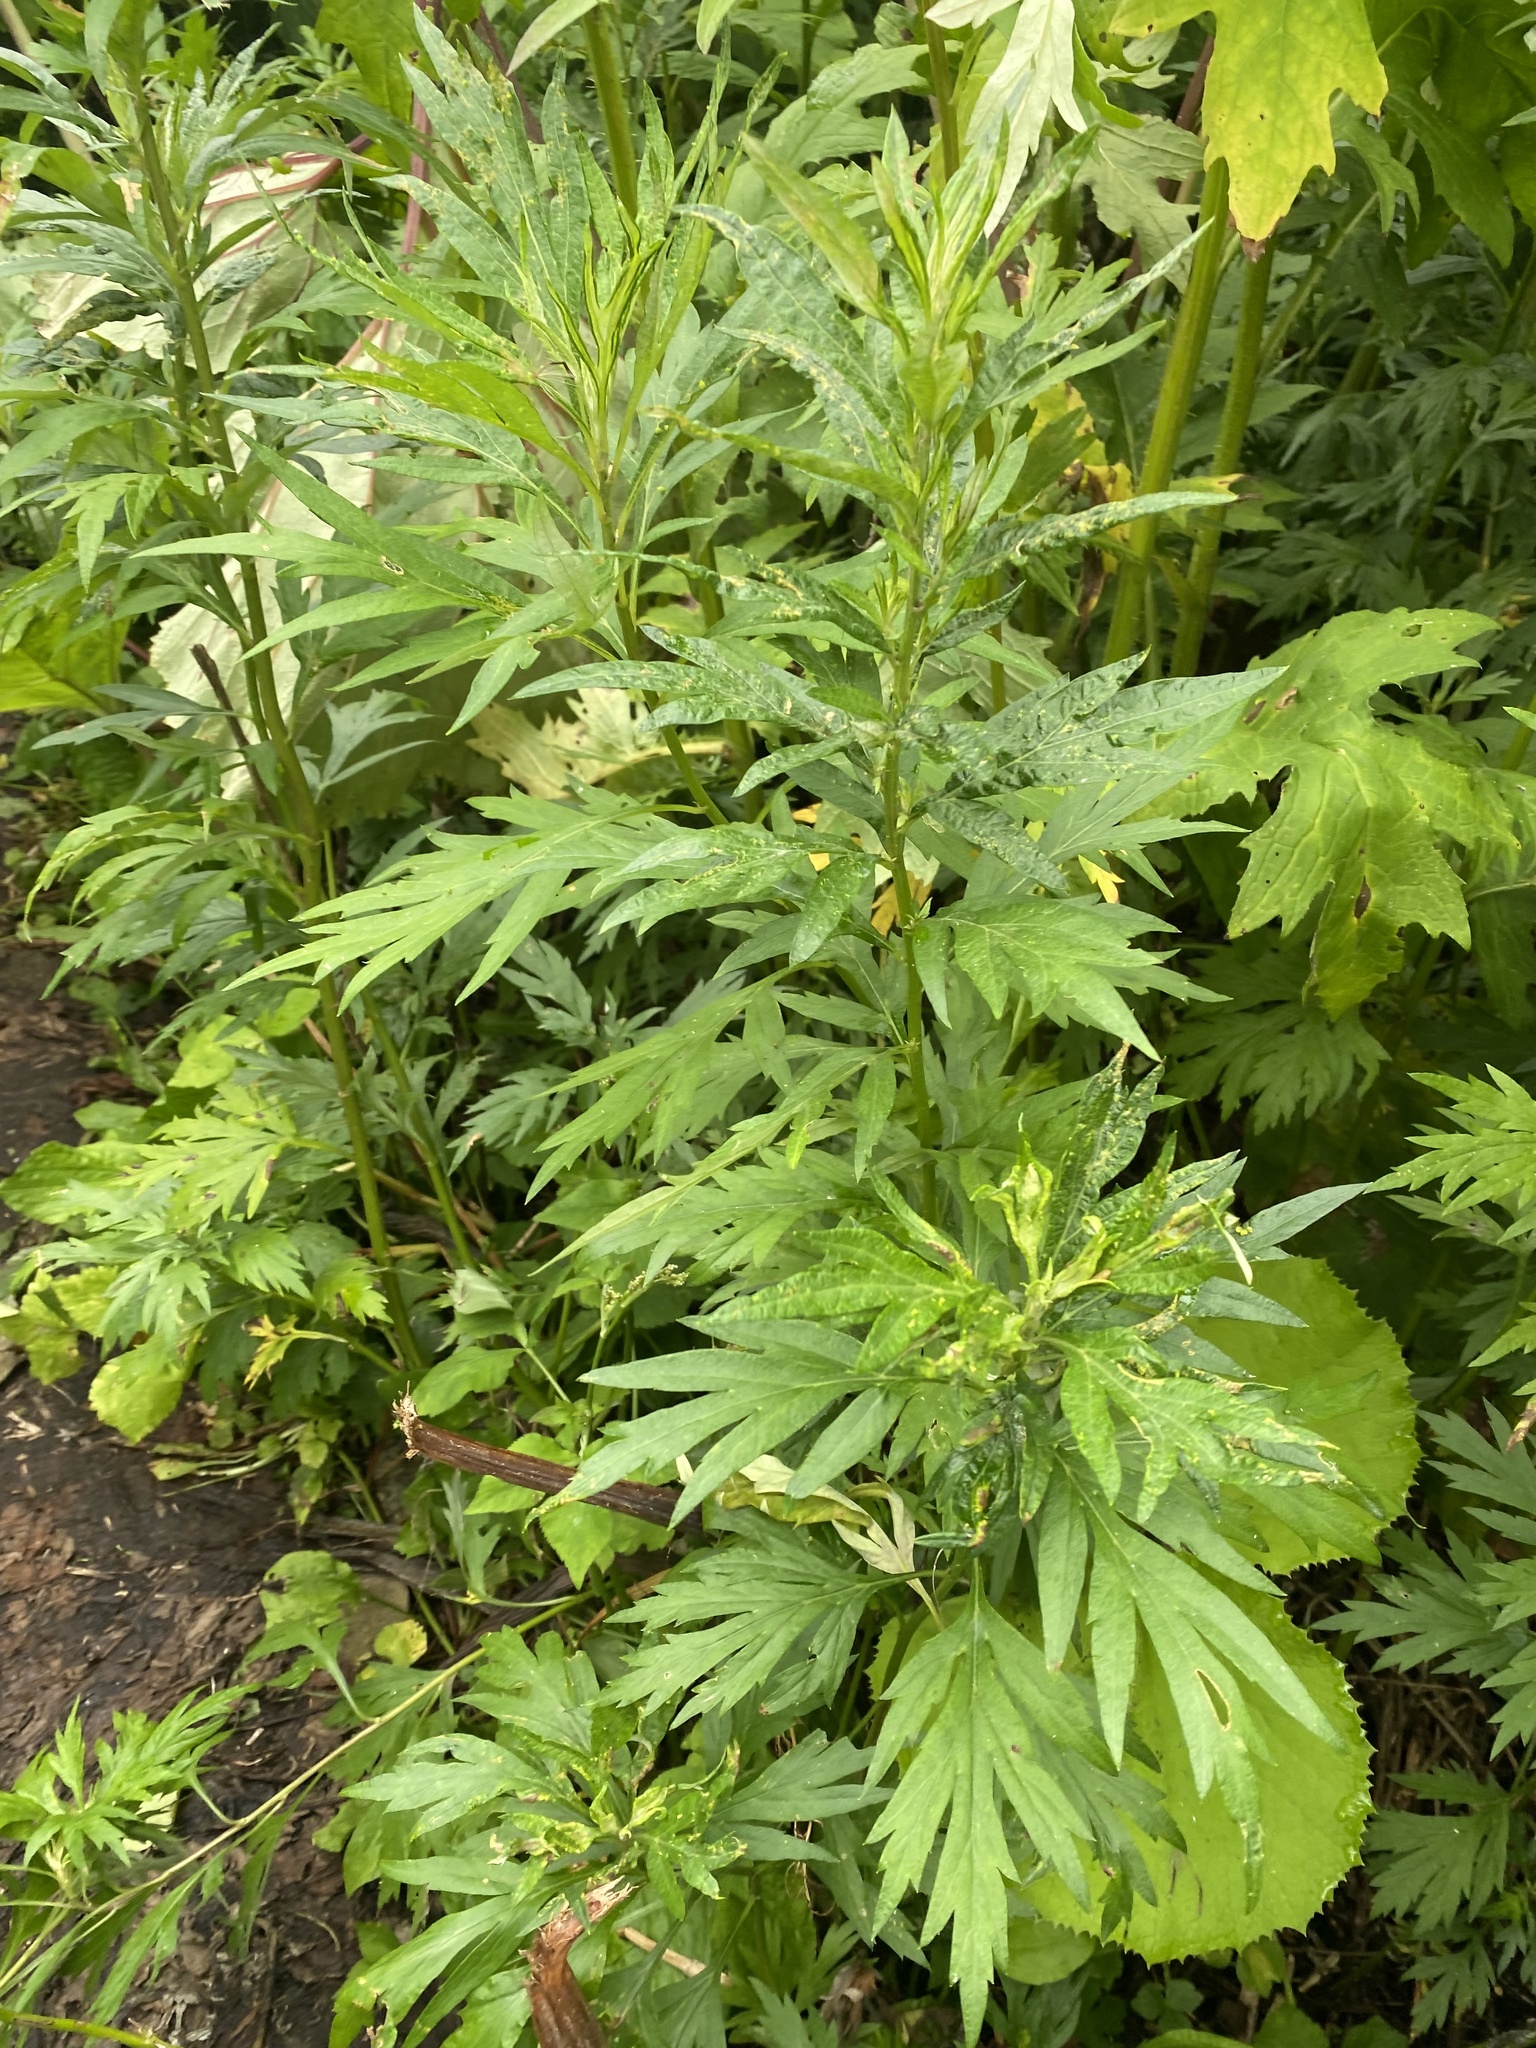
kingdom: Plantae
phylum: Tracheophyta
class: Magnoliopsida
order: Asterales
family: Asteraceae
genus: Jacobaea
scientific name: Jacobaea cannabifolia
